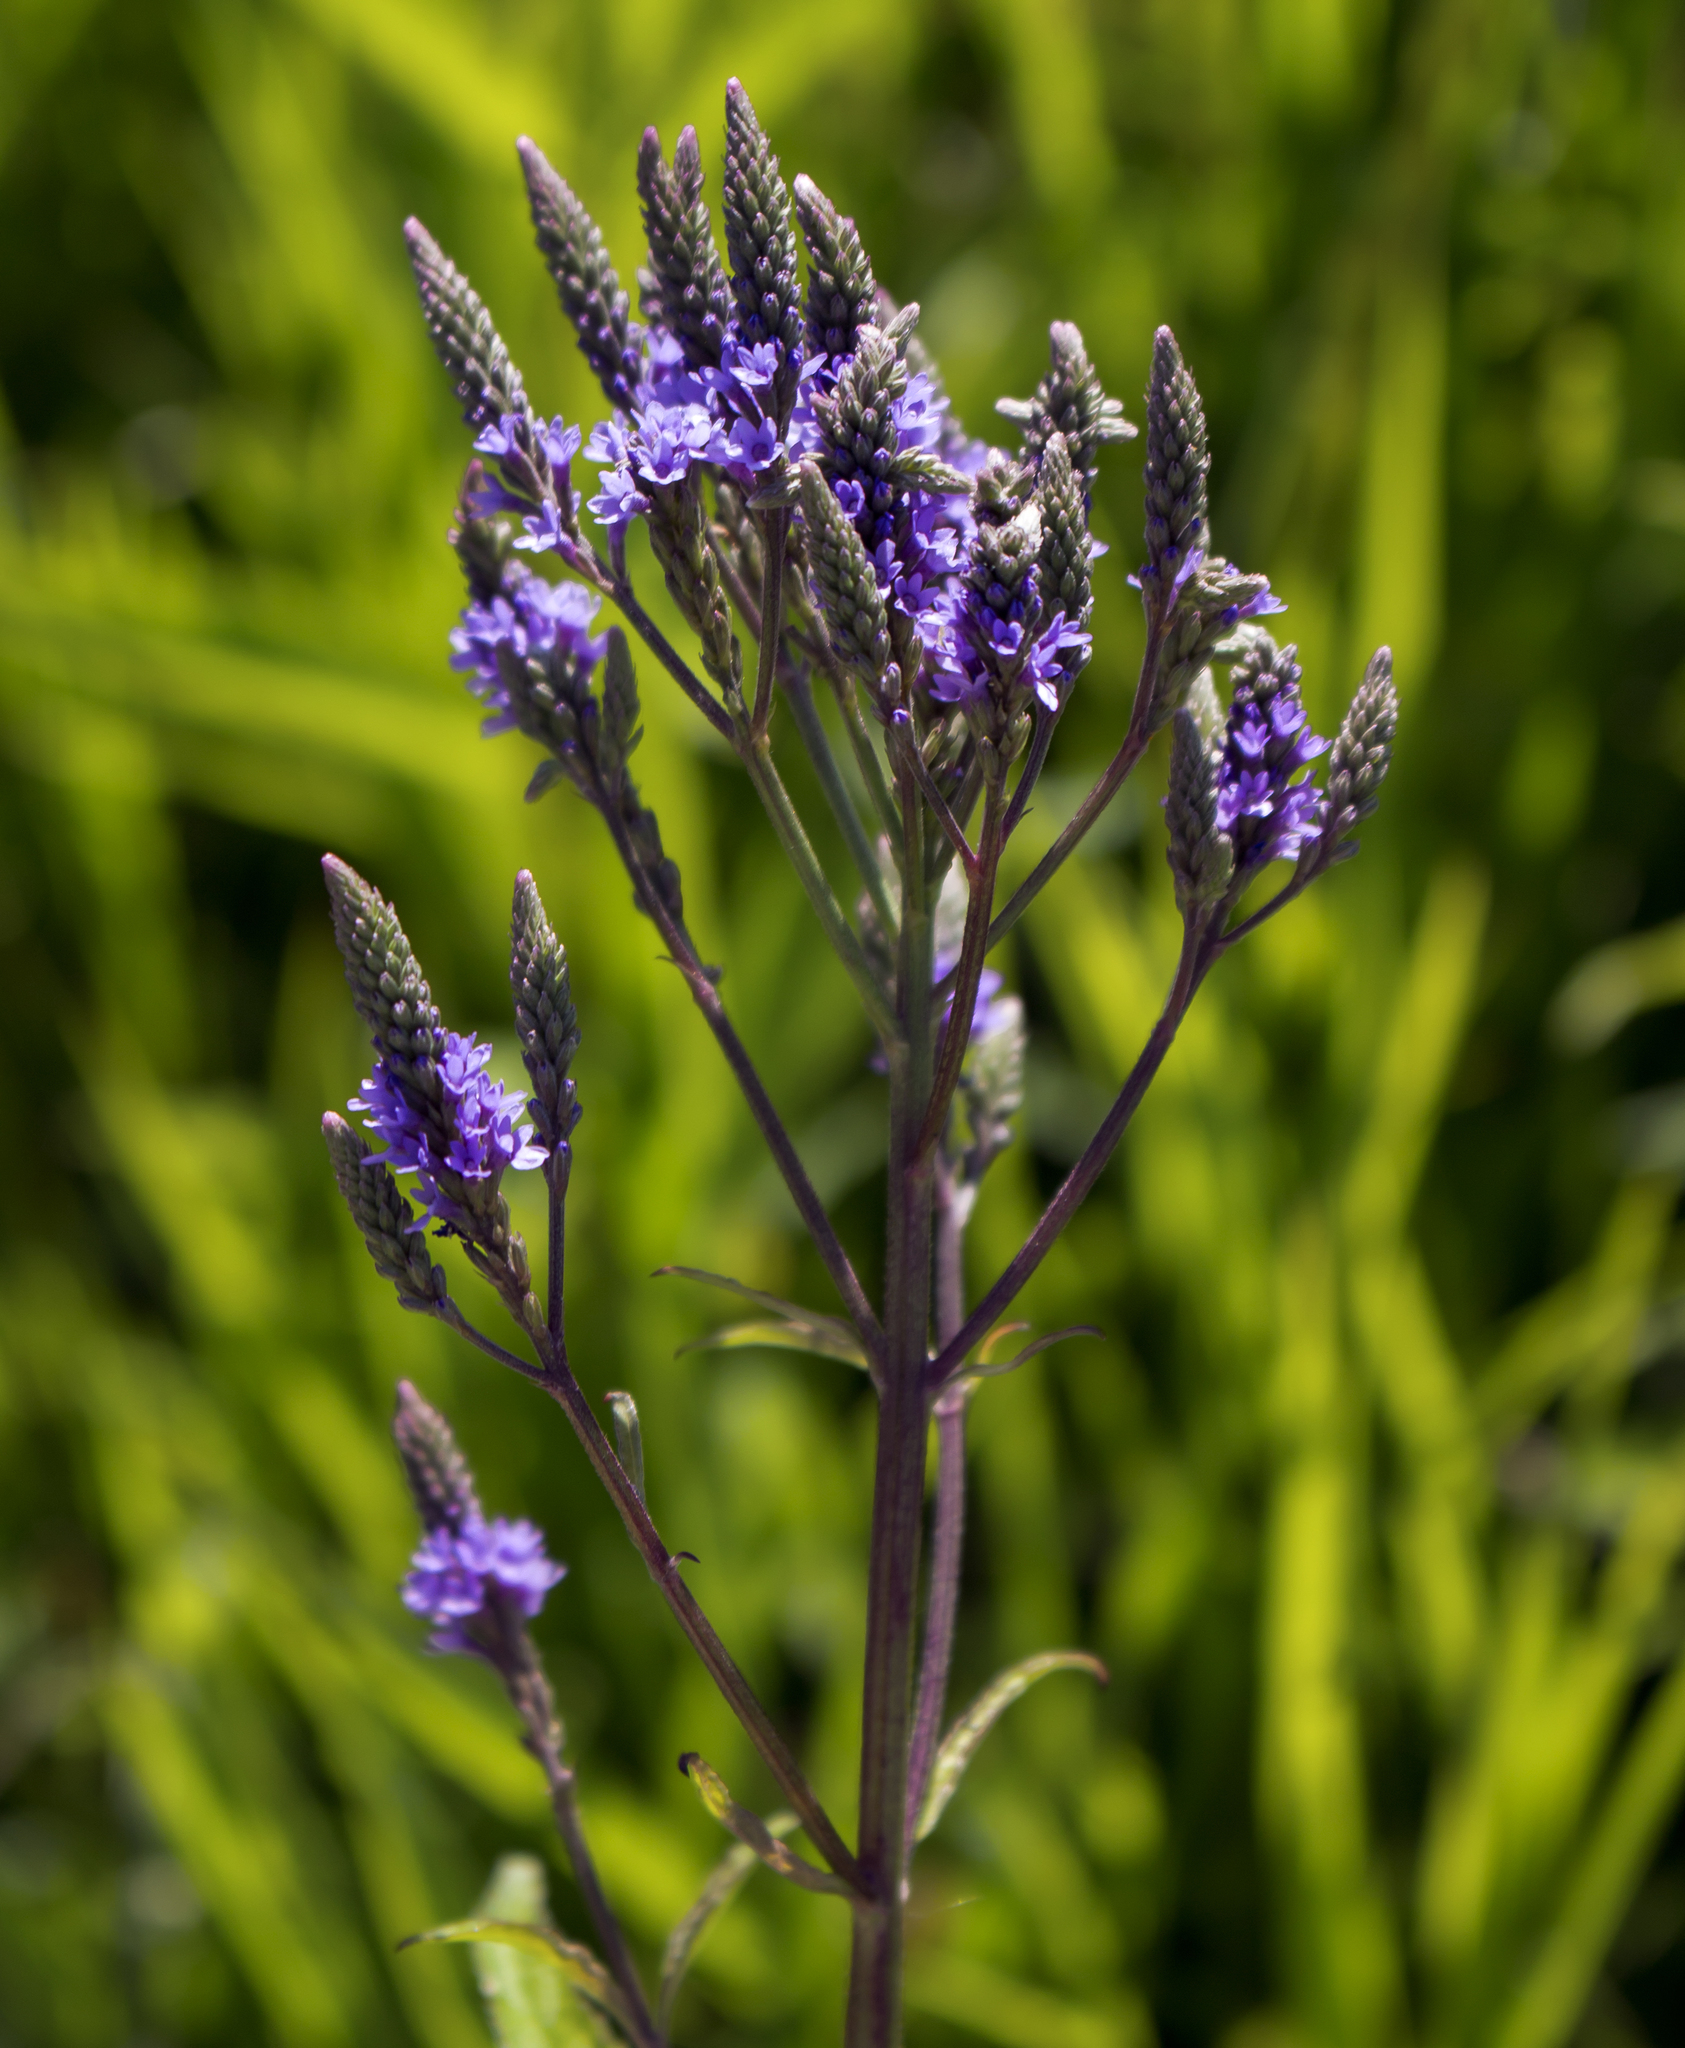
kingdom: Plantae
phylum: Tracheophyta
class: Magnoliopsida
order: Lamiales
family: Verbenaceae
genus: Verbena
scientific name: Verbena hastata
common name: American blue vervain
